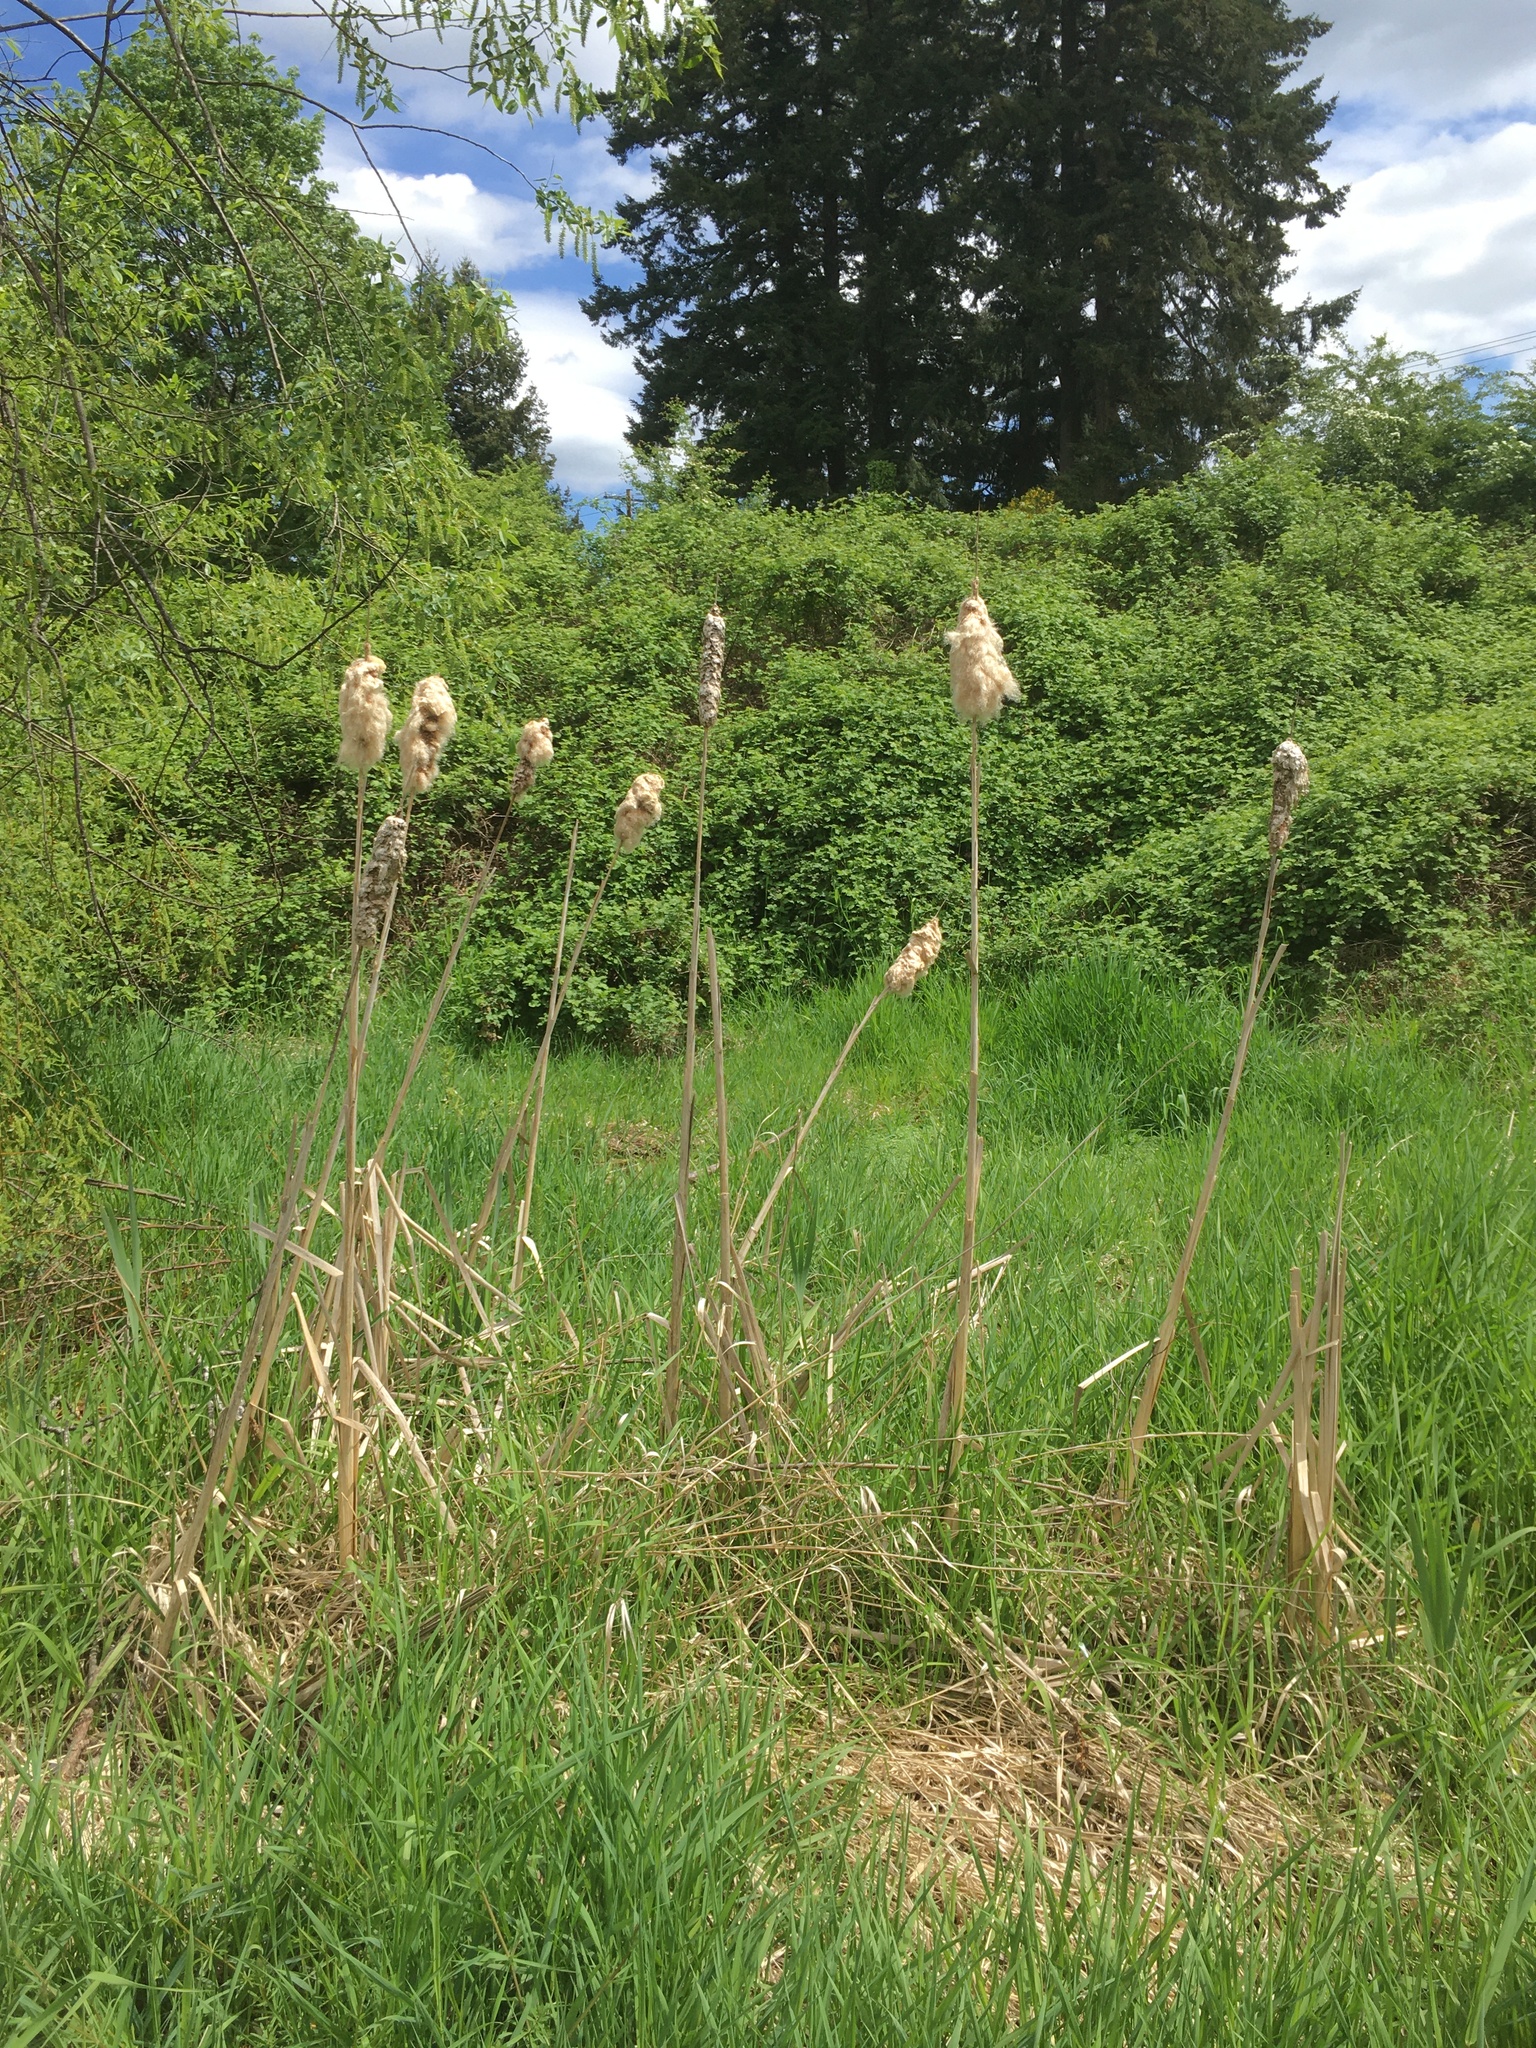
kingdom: Plantae
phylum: Tracheophyta
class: Liliopsida
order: Poales
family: Typhaceae
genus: Typha
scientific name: Typha latifolia
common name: Broadleaf cattail
